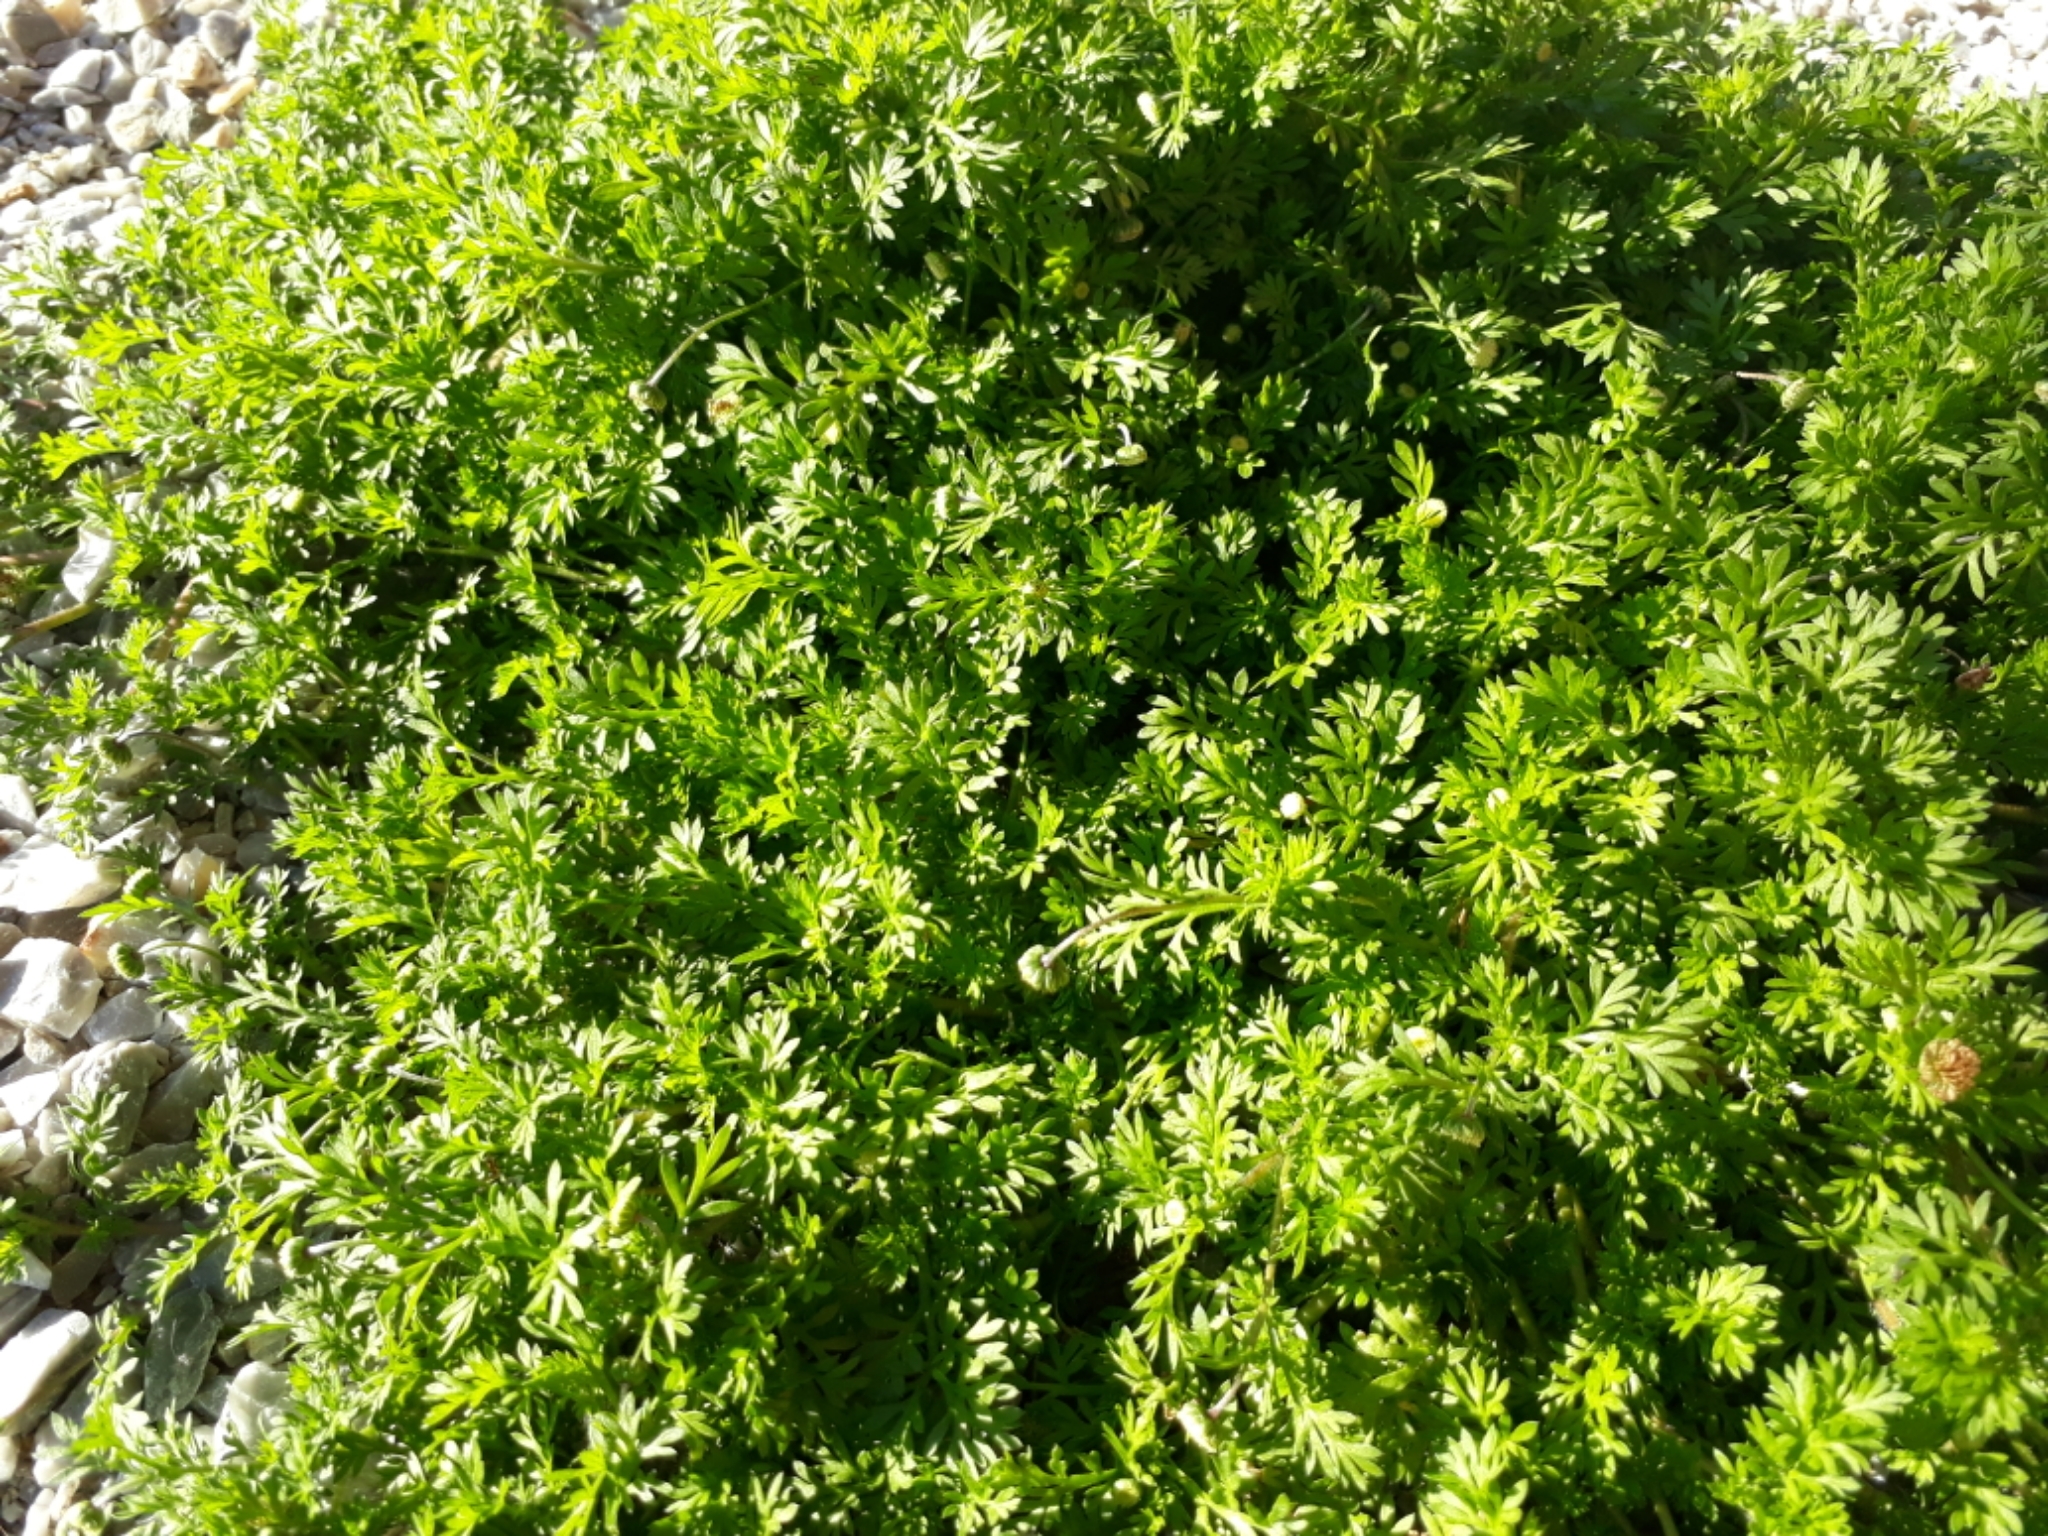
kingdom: Plantae
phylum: Tracheophyta
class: Magnoliopsida
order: Asterales
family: Asteraceae
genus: Cotula
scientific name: Cotula australis
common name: Australian waterbuttons
